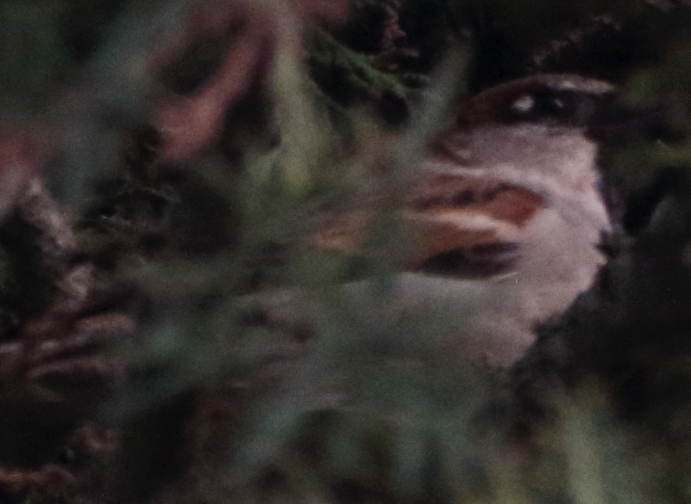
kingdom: Animalia
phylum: Chordata
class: Aves
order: Passeriformes
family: Passeridae
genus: Passer
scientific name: Passer domesticus
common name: House sparrow
